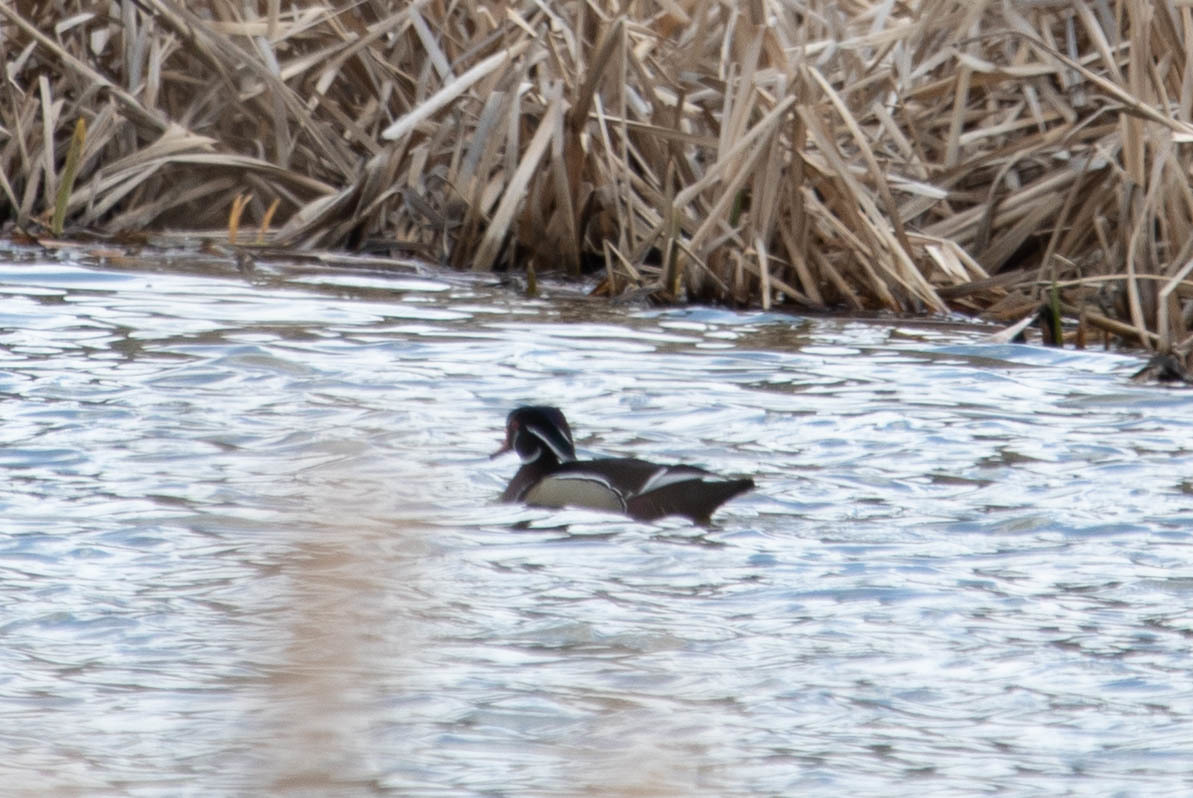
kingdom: Animalia
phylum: Chordata
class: Aves
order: Anseriformes
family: Anatidae
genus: Aix
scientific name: Aix sponsa
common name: Wood duck
